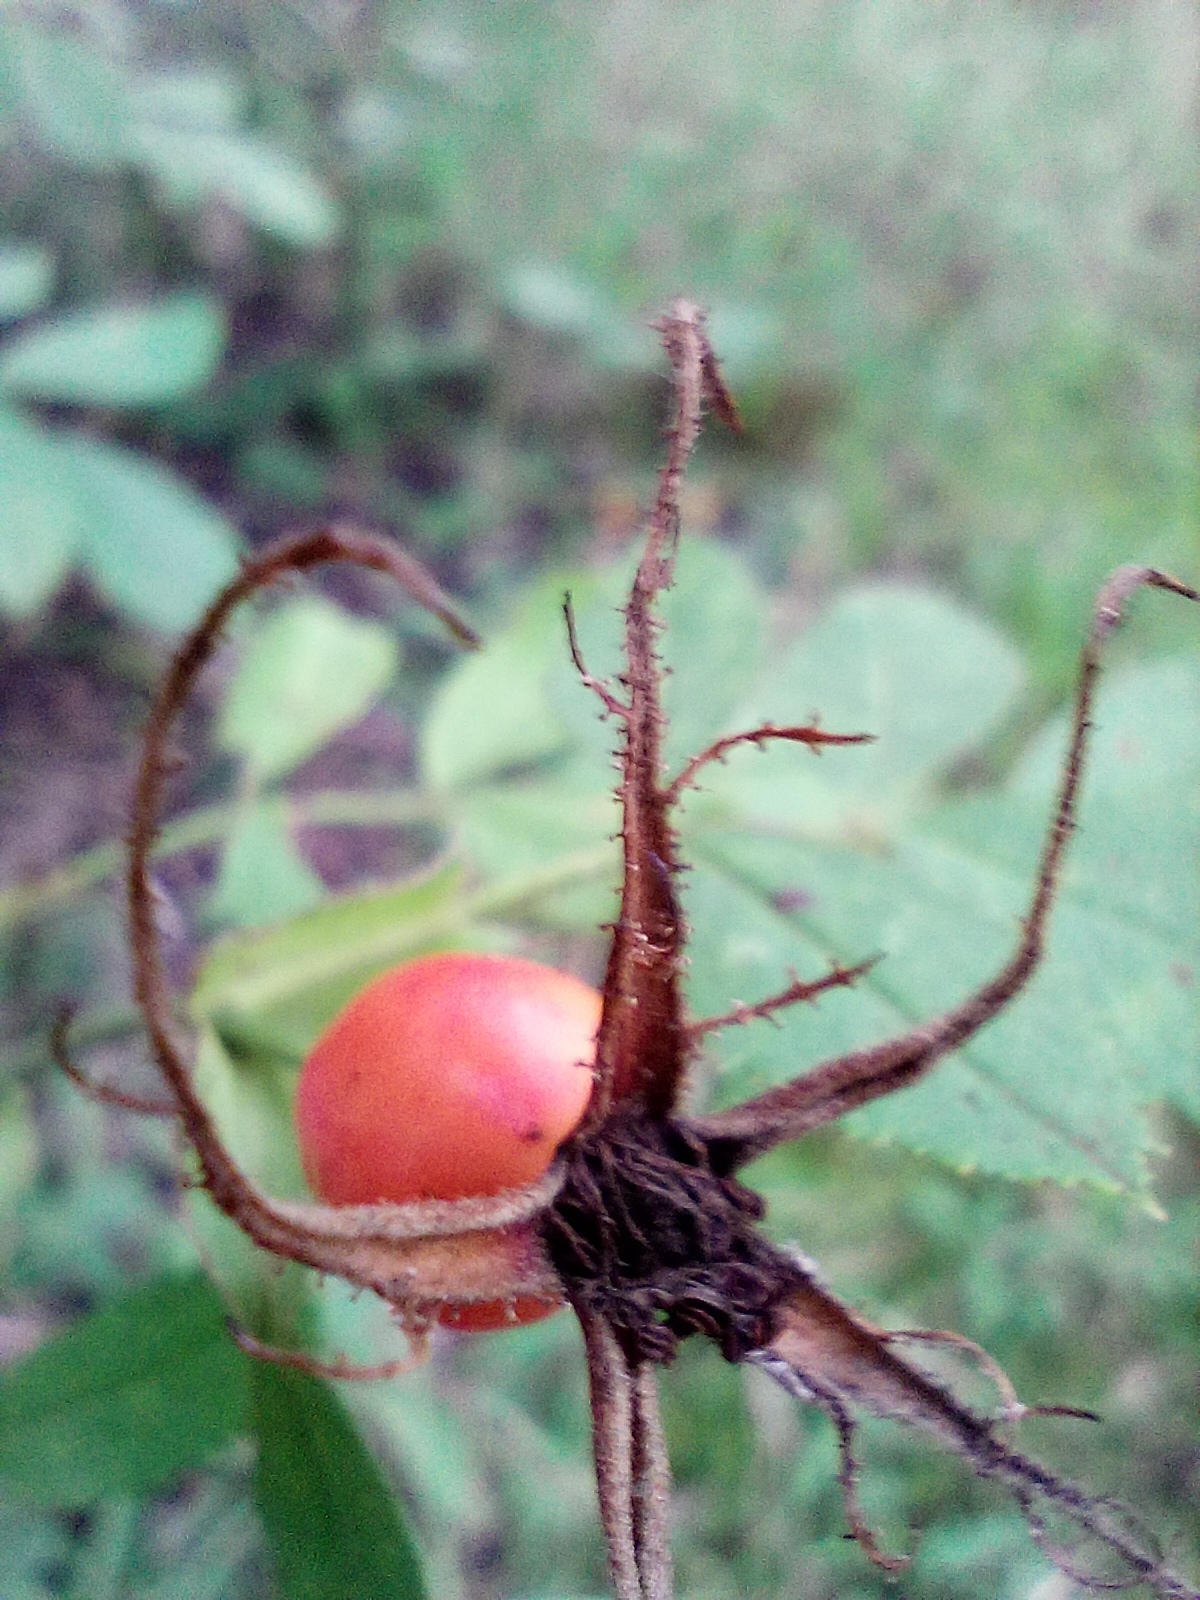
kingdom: Plantae
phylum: Tracheophyta
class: Magnoliopsida
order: Rosales
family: Rosaceae
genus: Rosa
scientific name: Rosa inodora
